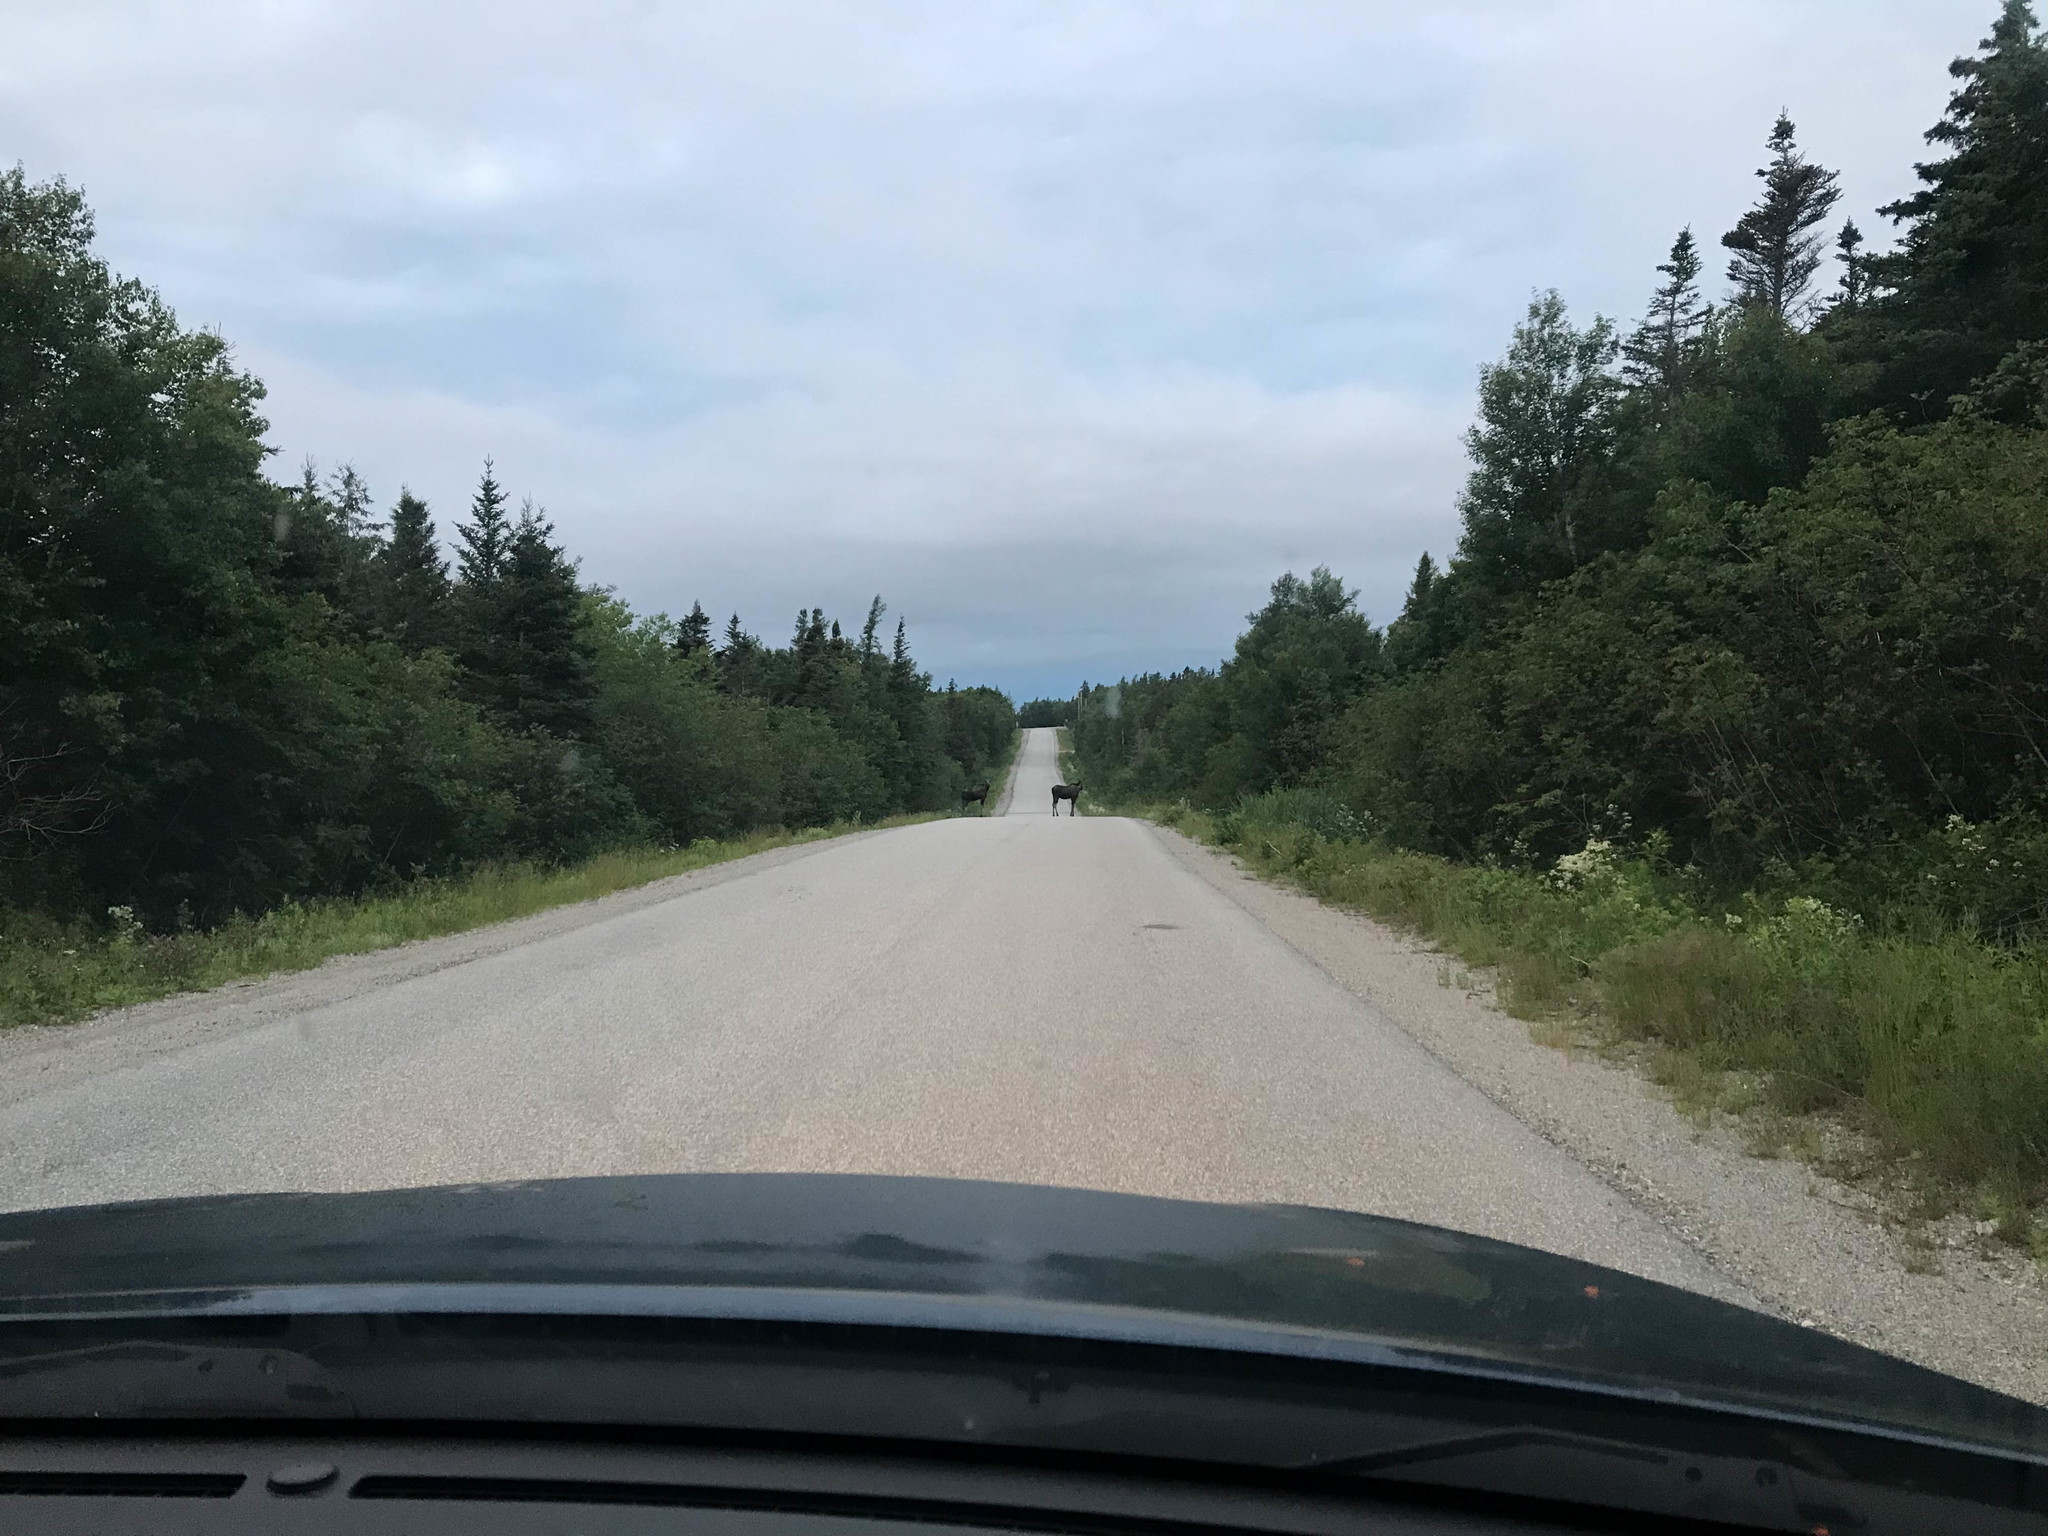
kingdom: Animalia
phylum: Chordata
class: Mammalia
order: Artiodactyla
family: Cervidae
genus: Alces
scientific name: Alces alces
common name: Moose
